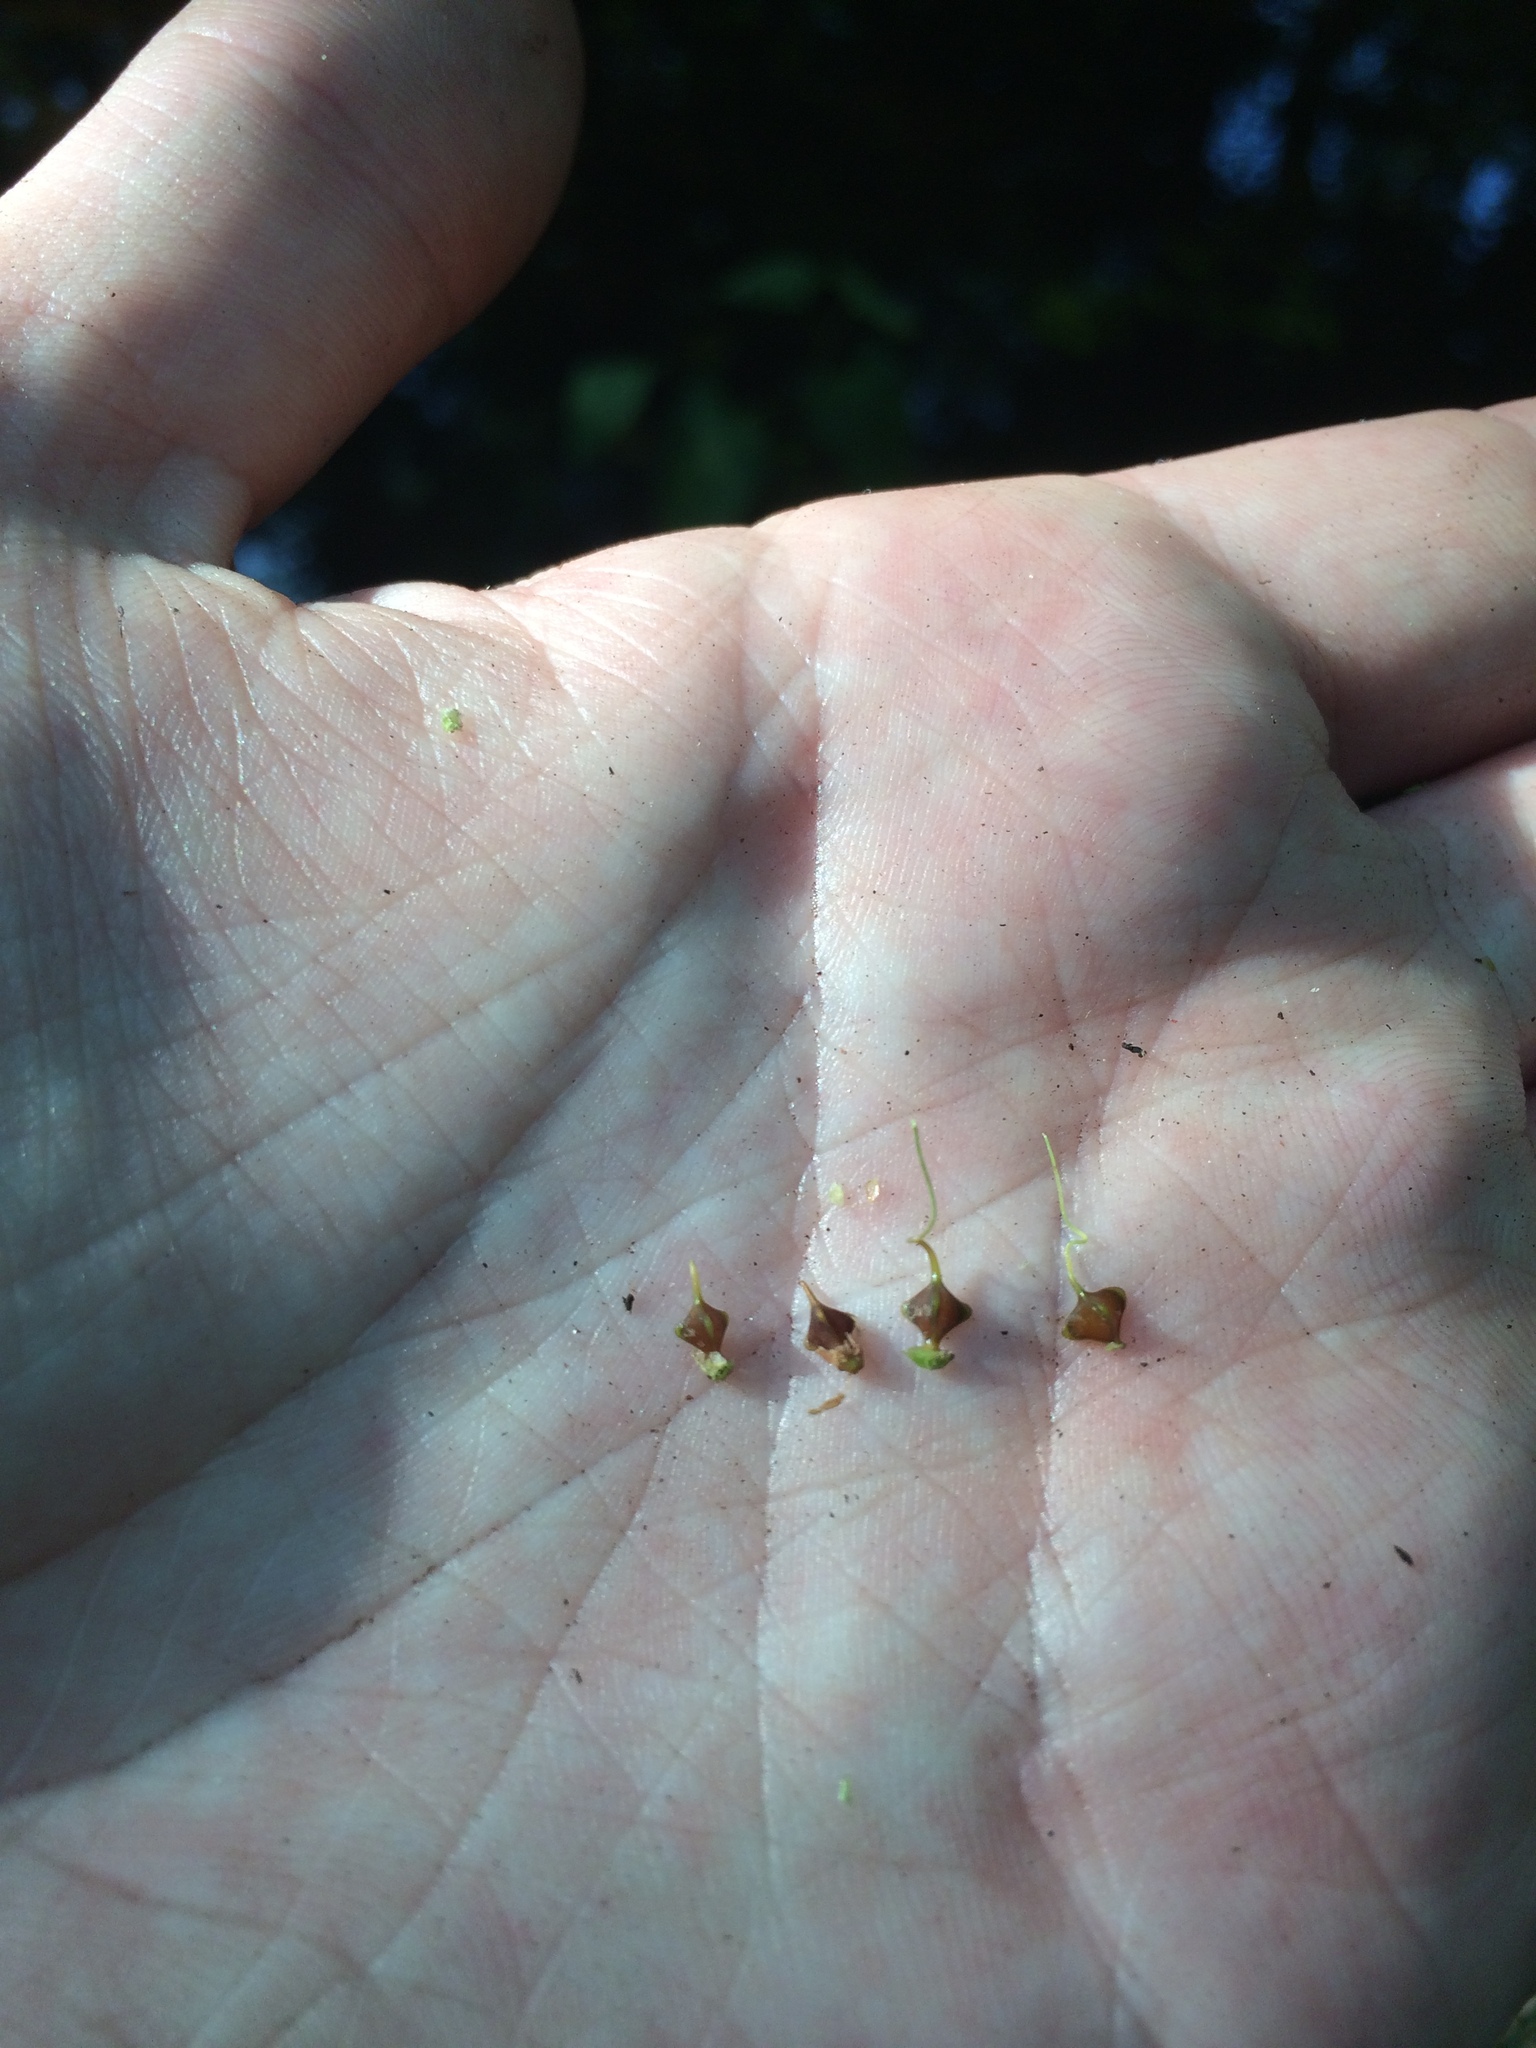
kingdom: Plantae
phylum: Tracheophyta
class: Liliopsida
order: Poales
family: Cyperaceae
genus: Carex
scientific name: Carex gigantea
